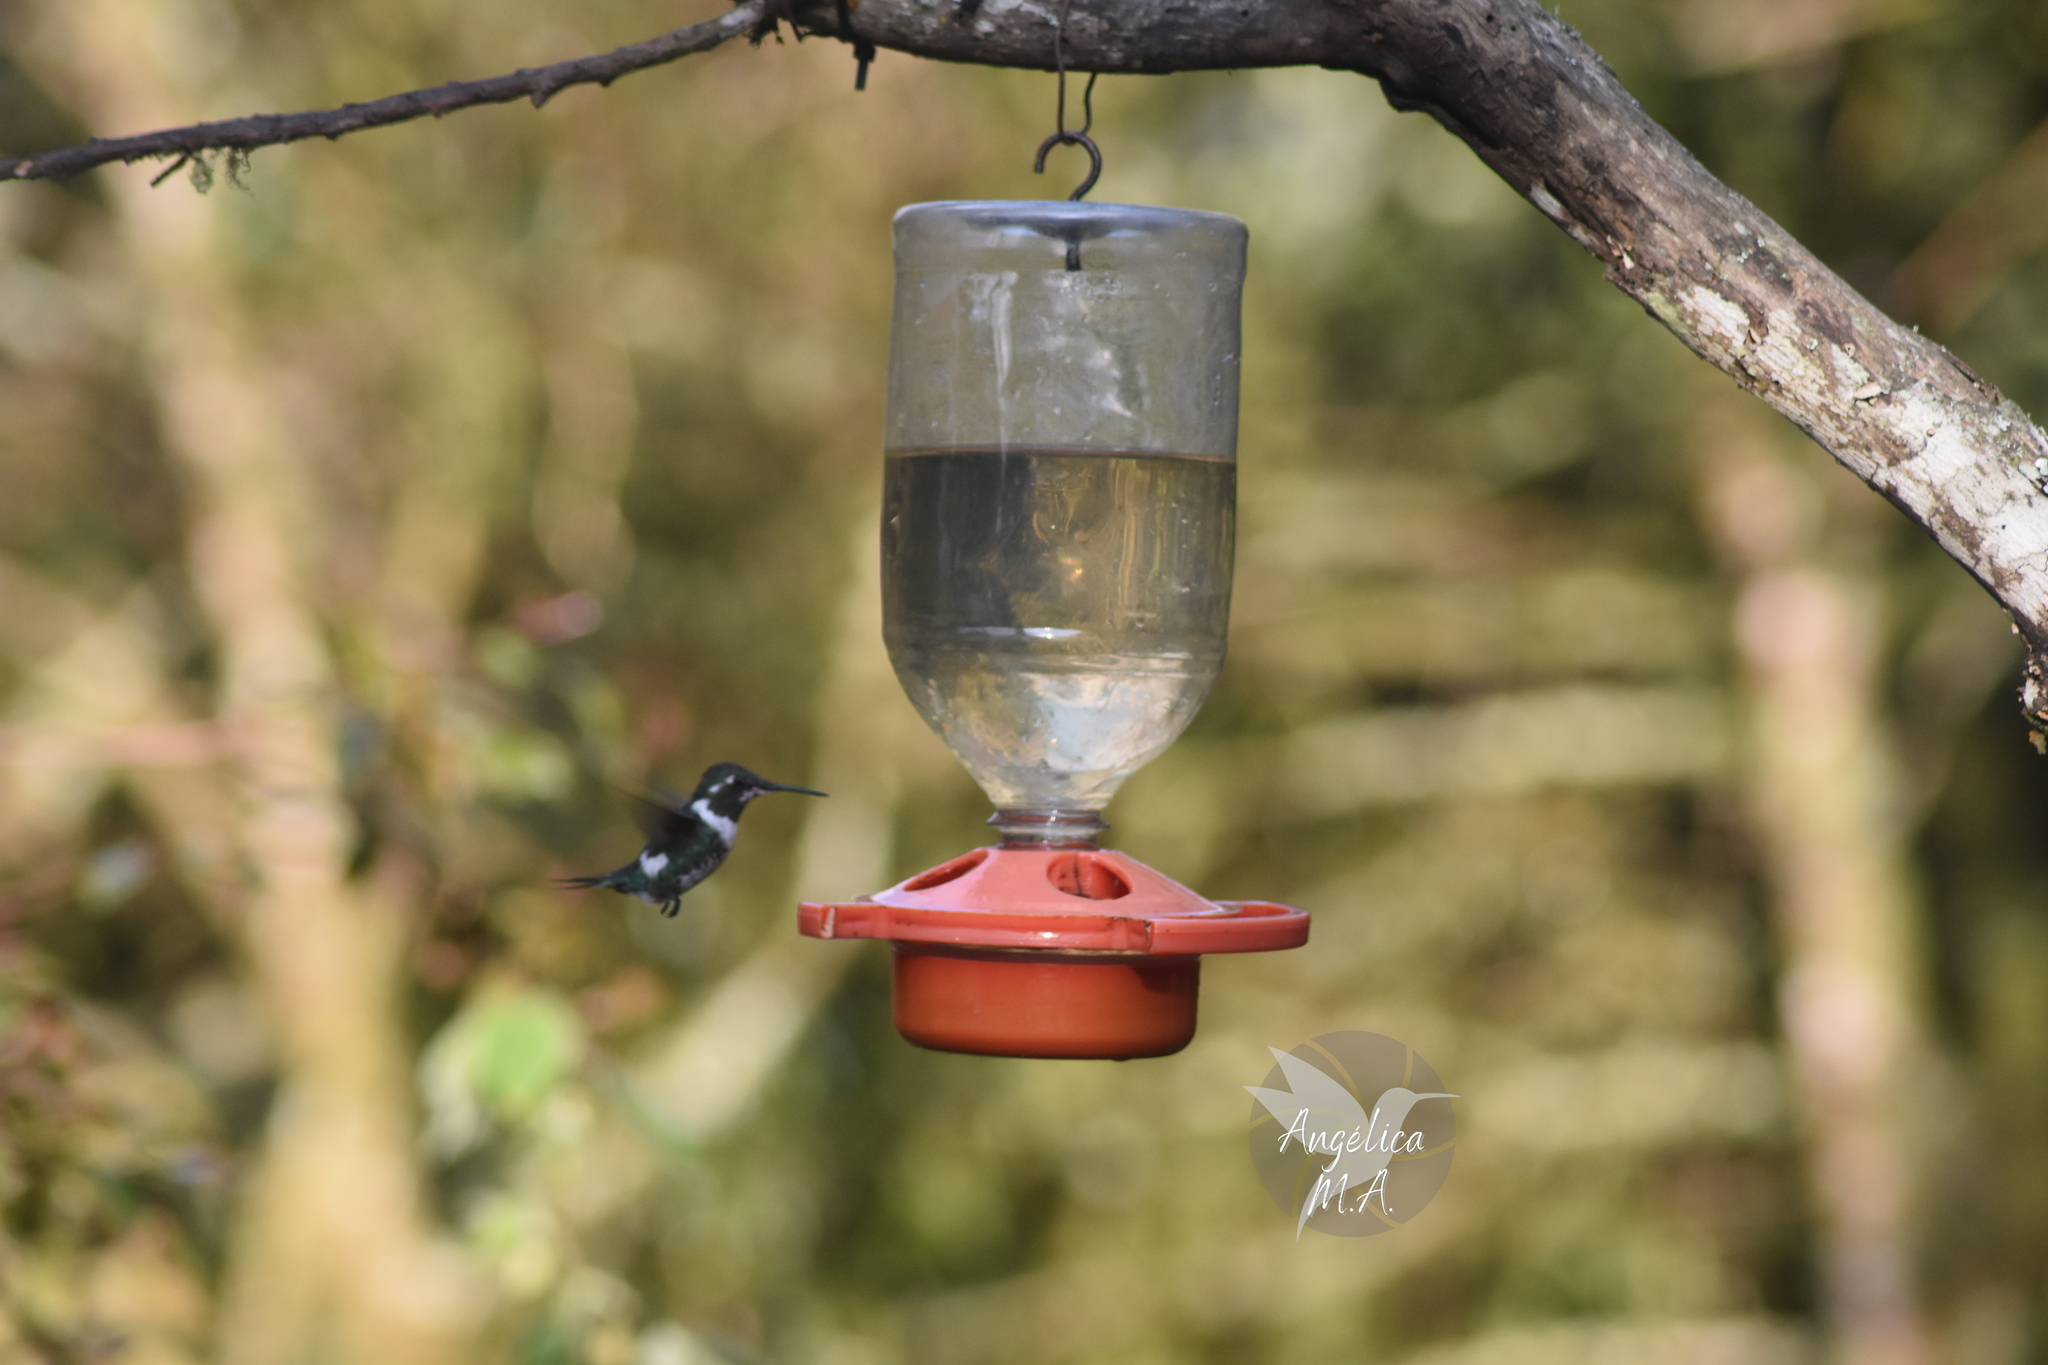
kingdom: Animalia
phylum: Chordata
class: Aves
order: Apodiformes
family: Trochilidae
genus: Chaetocercus
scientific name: Chaetocercus mulsant
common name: White-bellied woodstar
